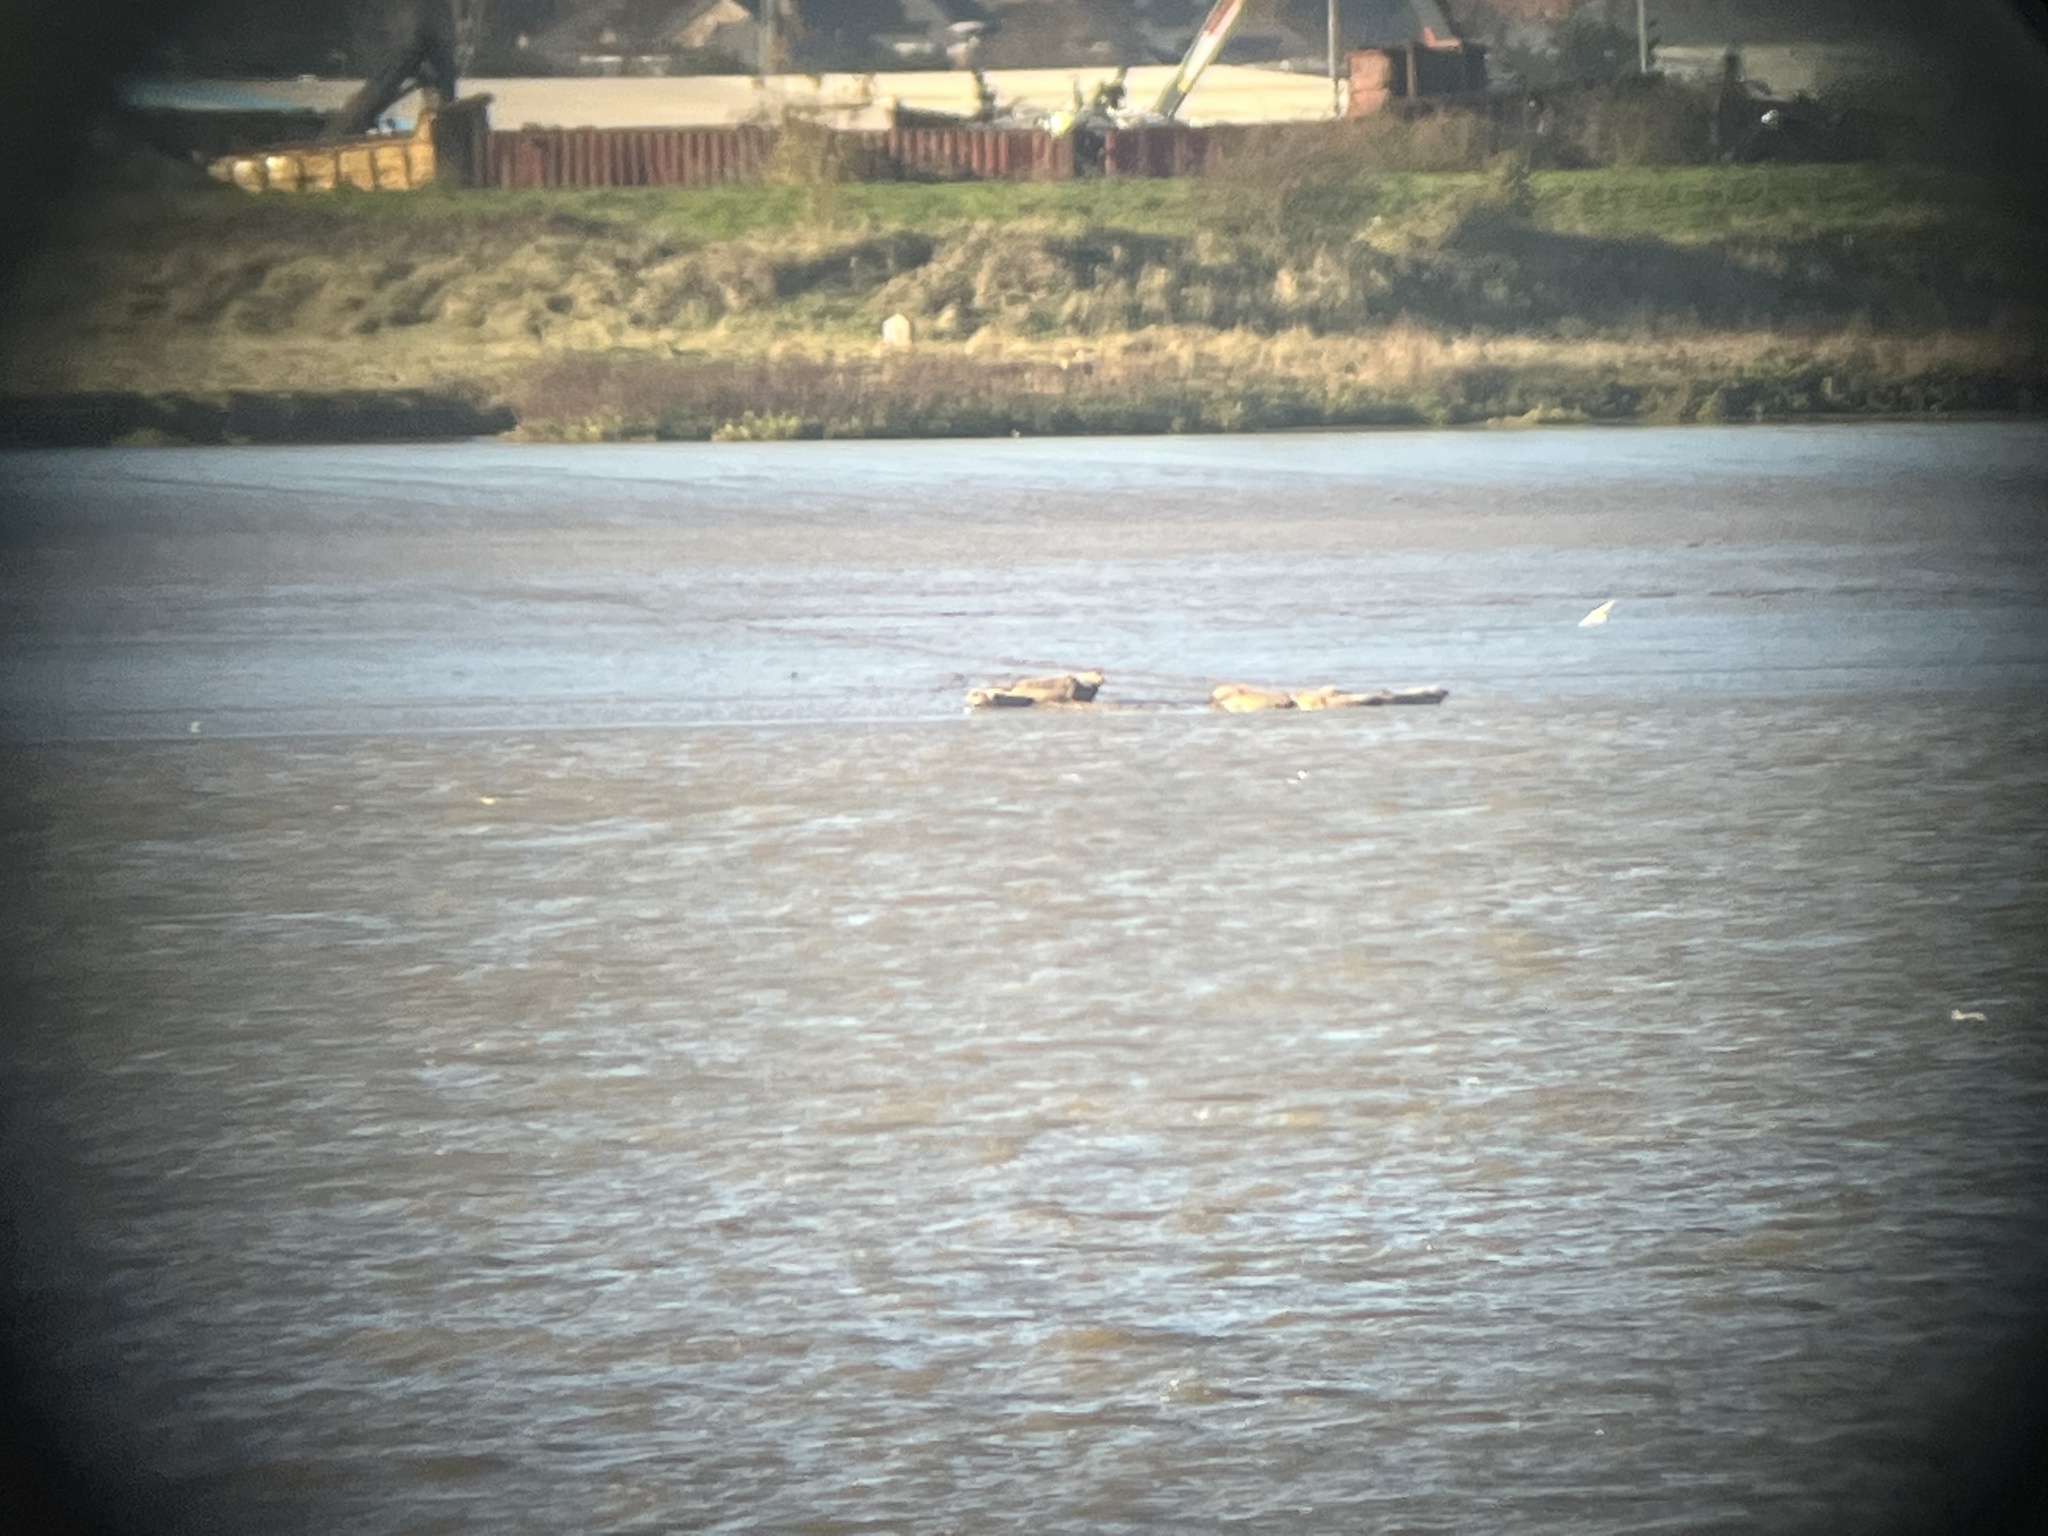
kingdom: Animalia
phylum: Chordata
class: Mammalia
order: Carnivora
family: Phocidae
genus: Phoca
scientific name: Phoca vitulina
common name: Harbor seal
